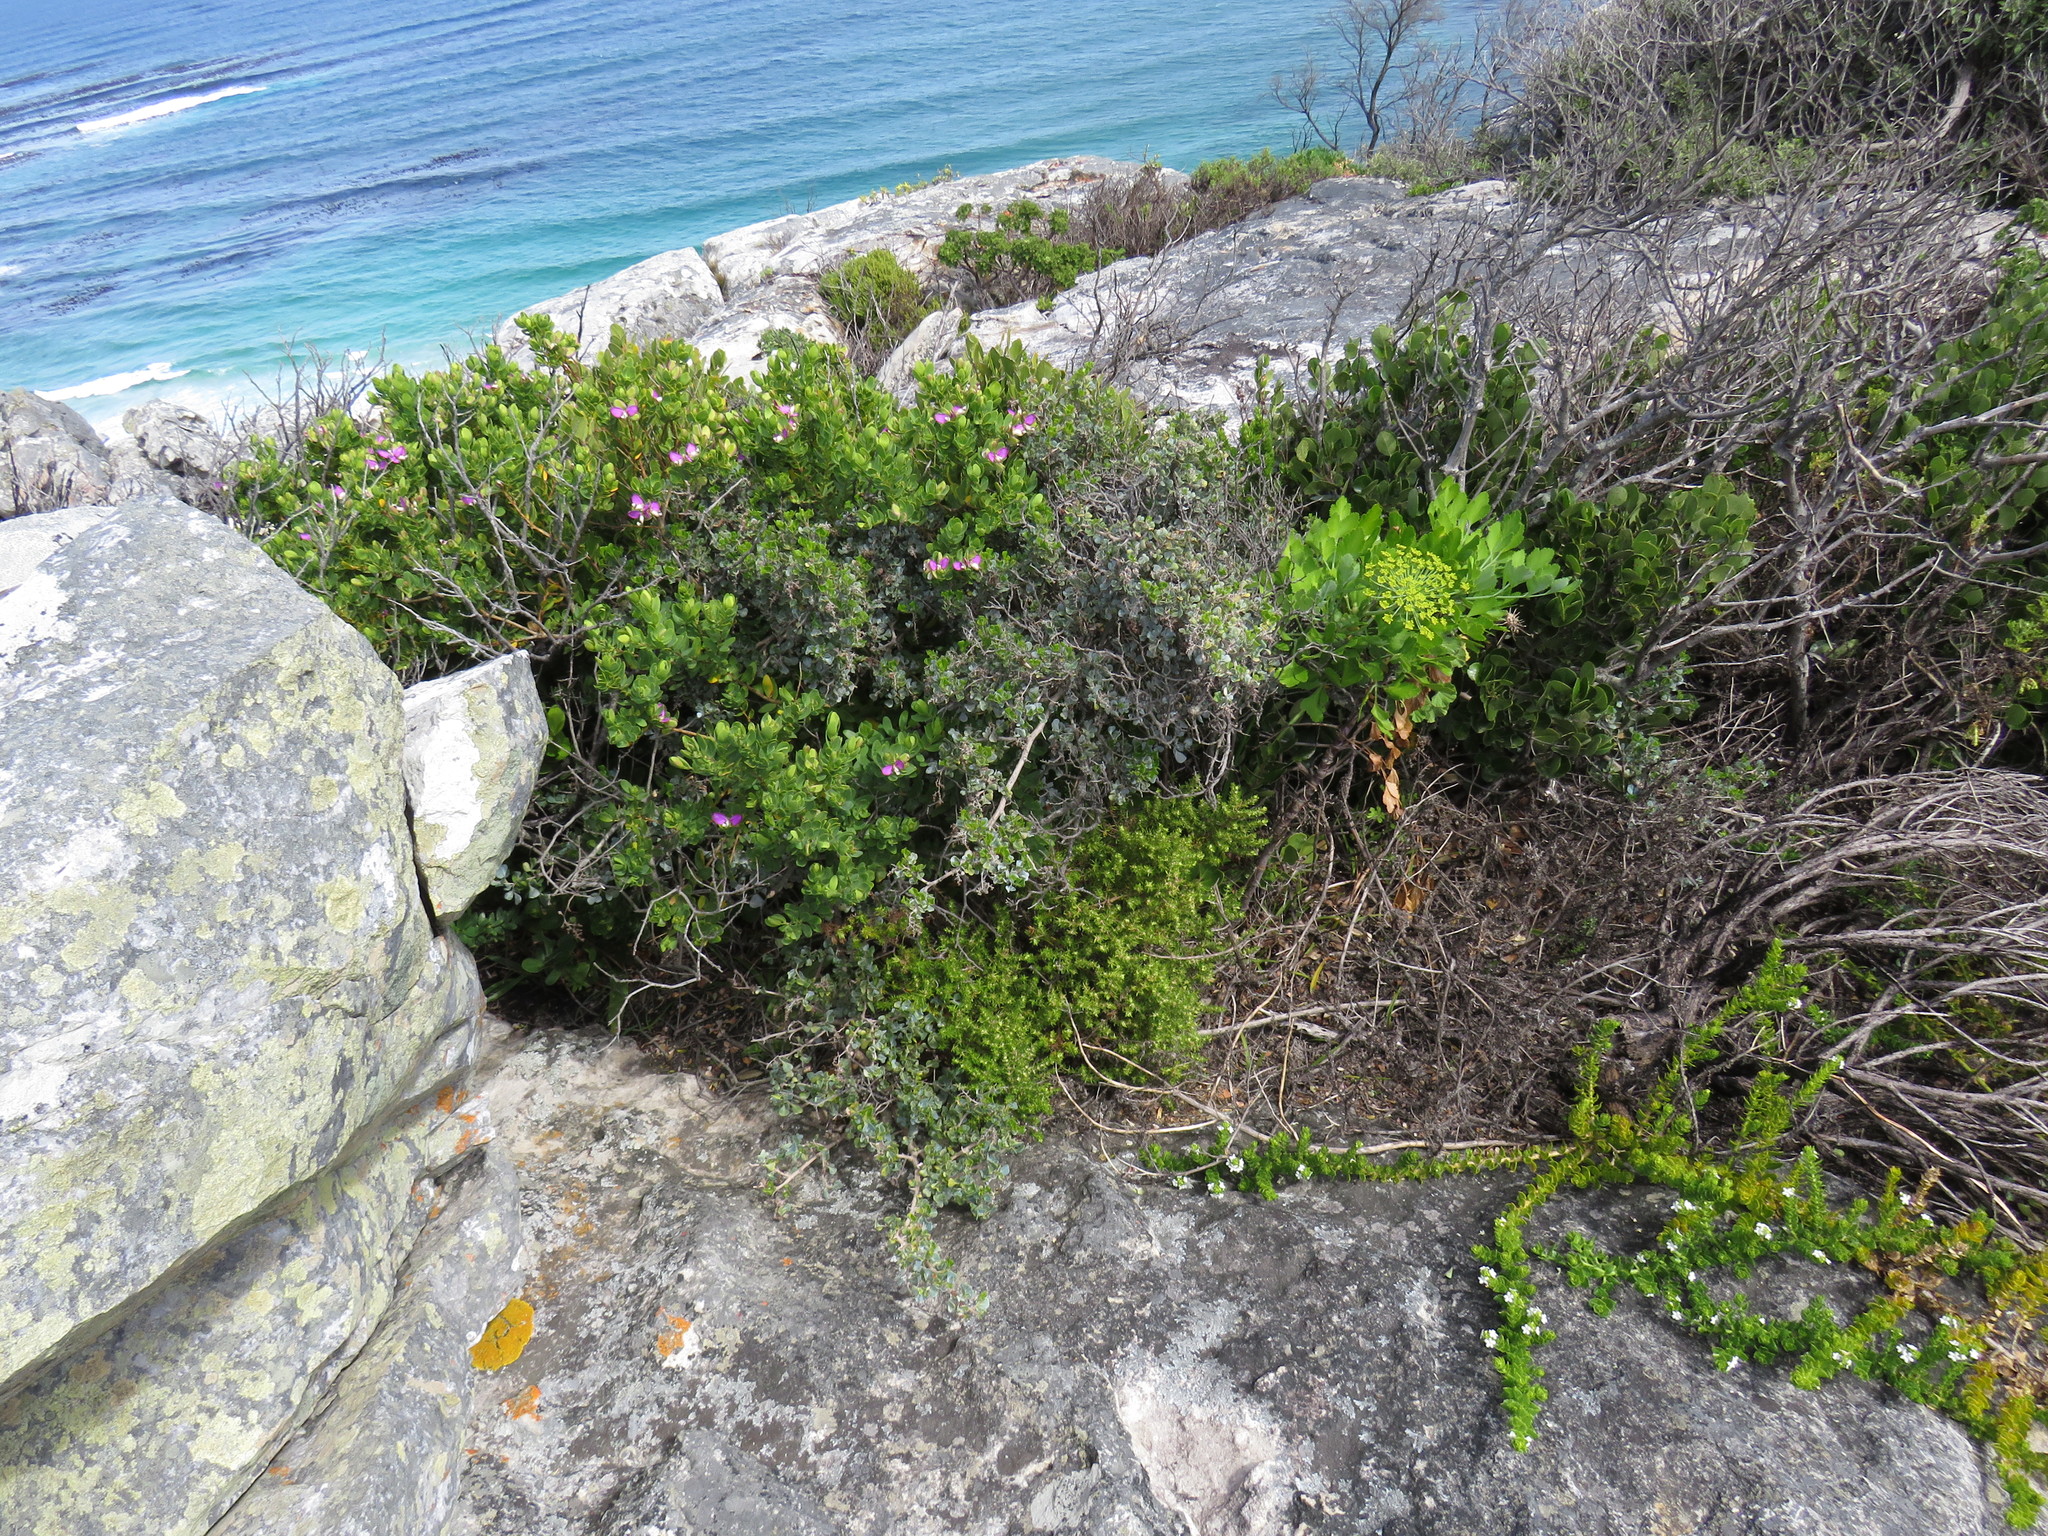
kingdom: Plantae
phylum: Tracheophyta
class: Magnoliopsida
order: Sapindales
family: Anacardiaceae
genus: Searsia
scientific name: Searsia glauca
